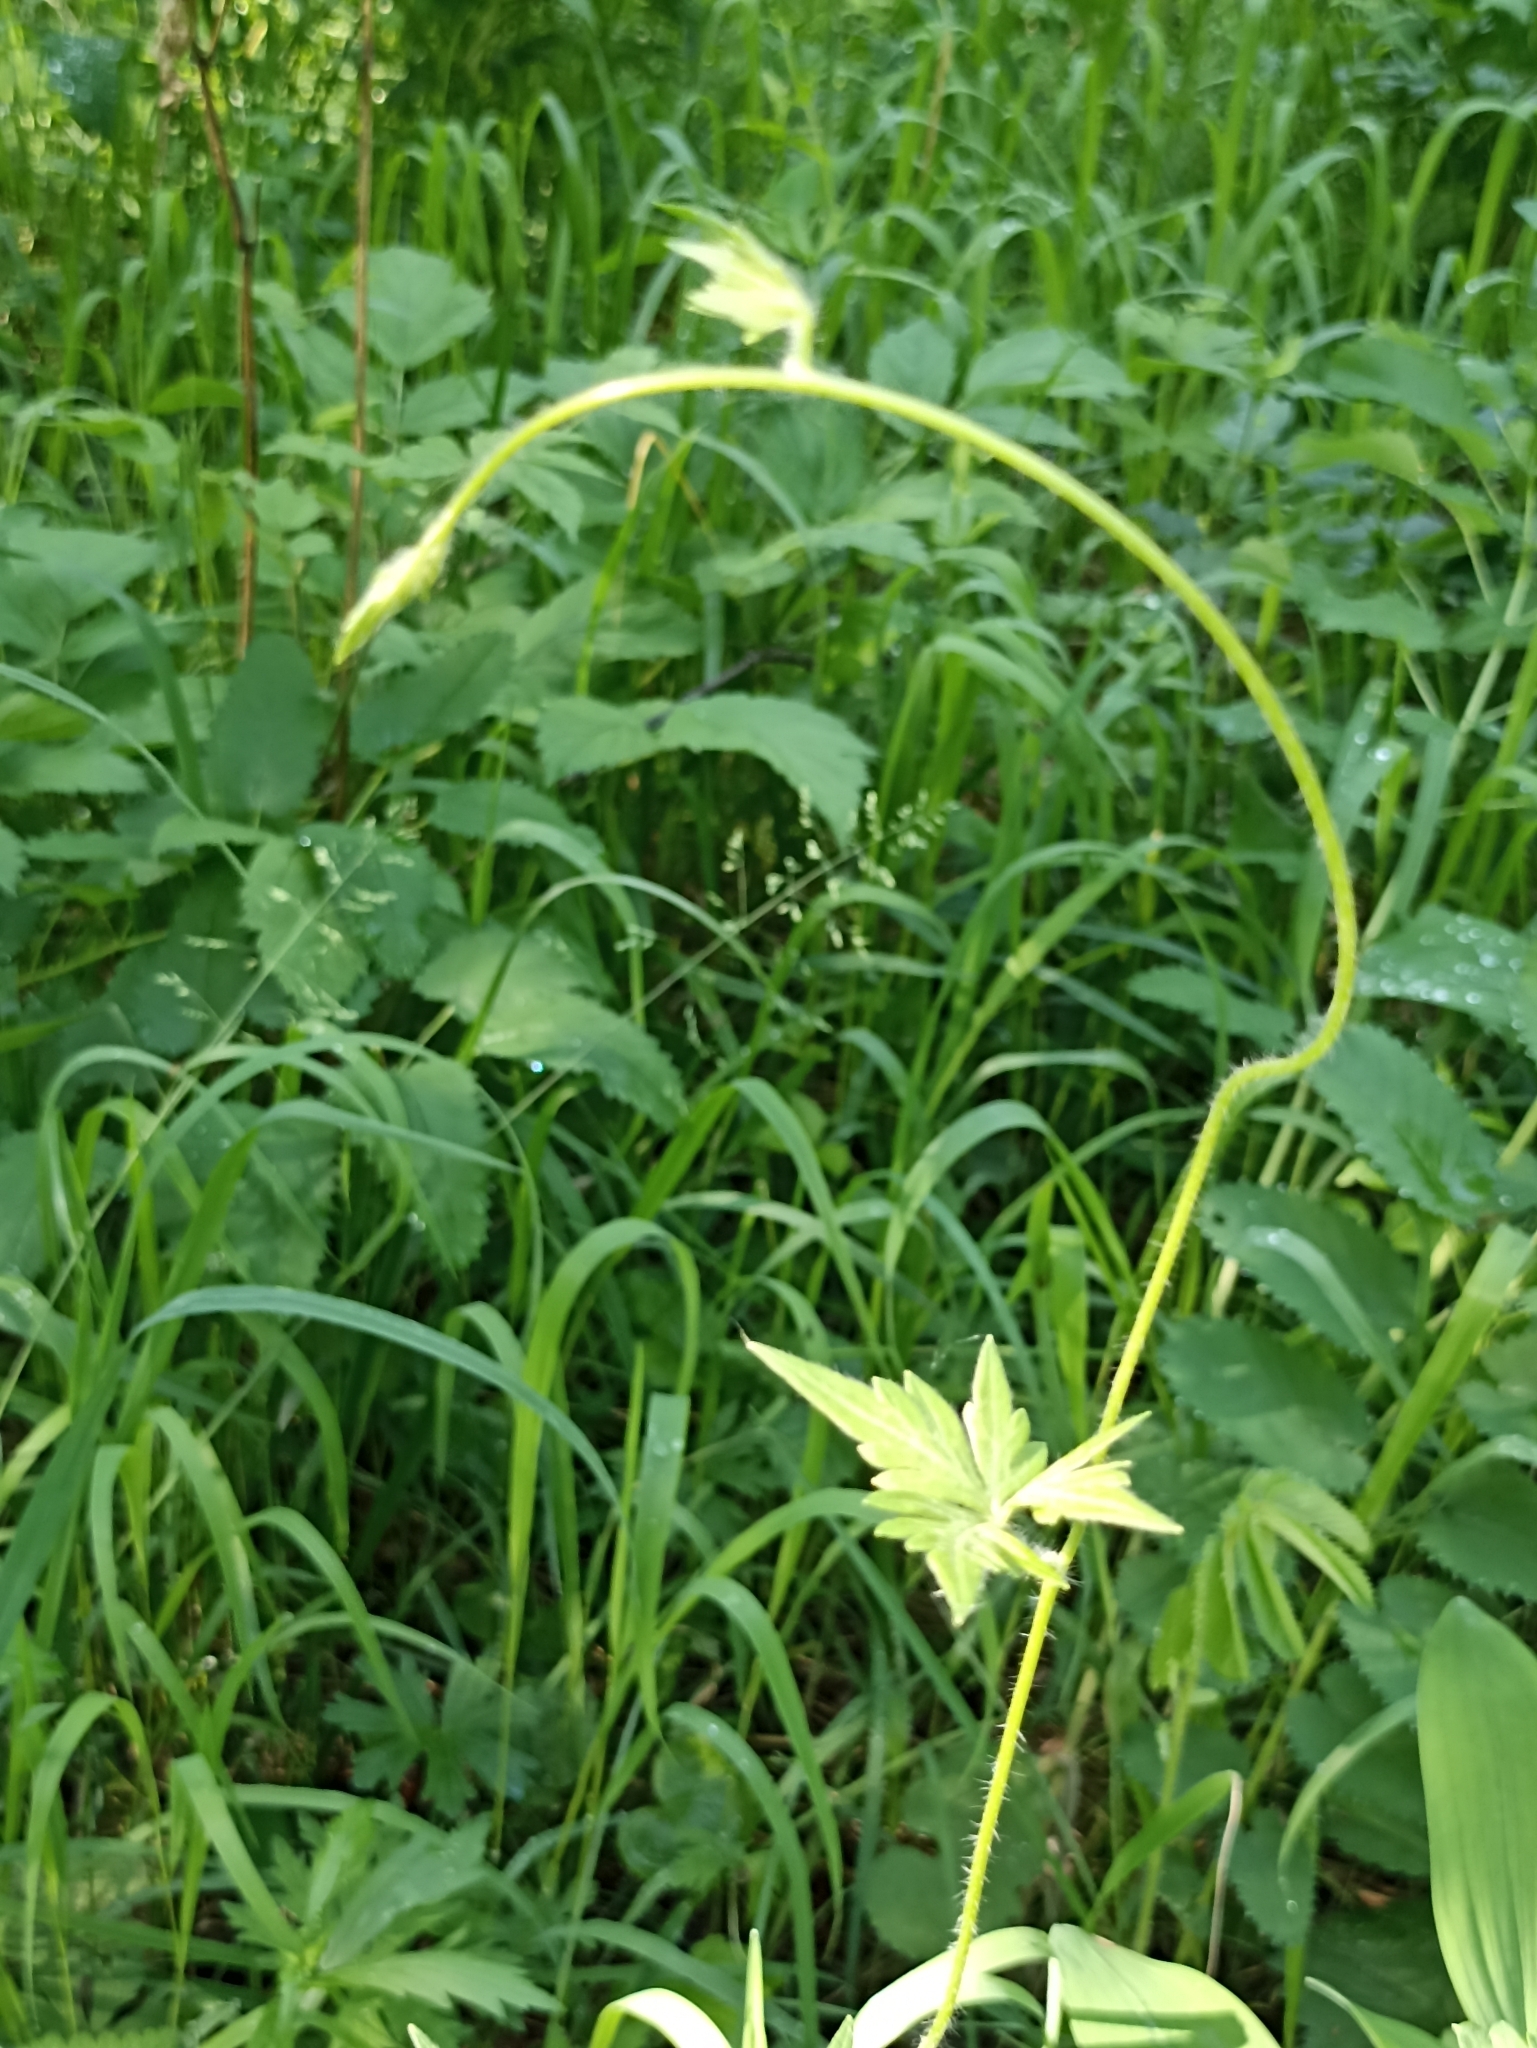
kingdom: Plantae
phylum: Tracheophyta
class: Magnoliopsida
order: Ranunculales
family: Ranunculaceae
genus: Aconitum
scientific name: Aconitum volubile
